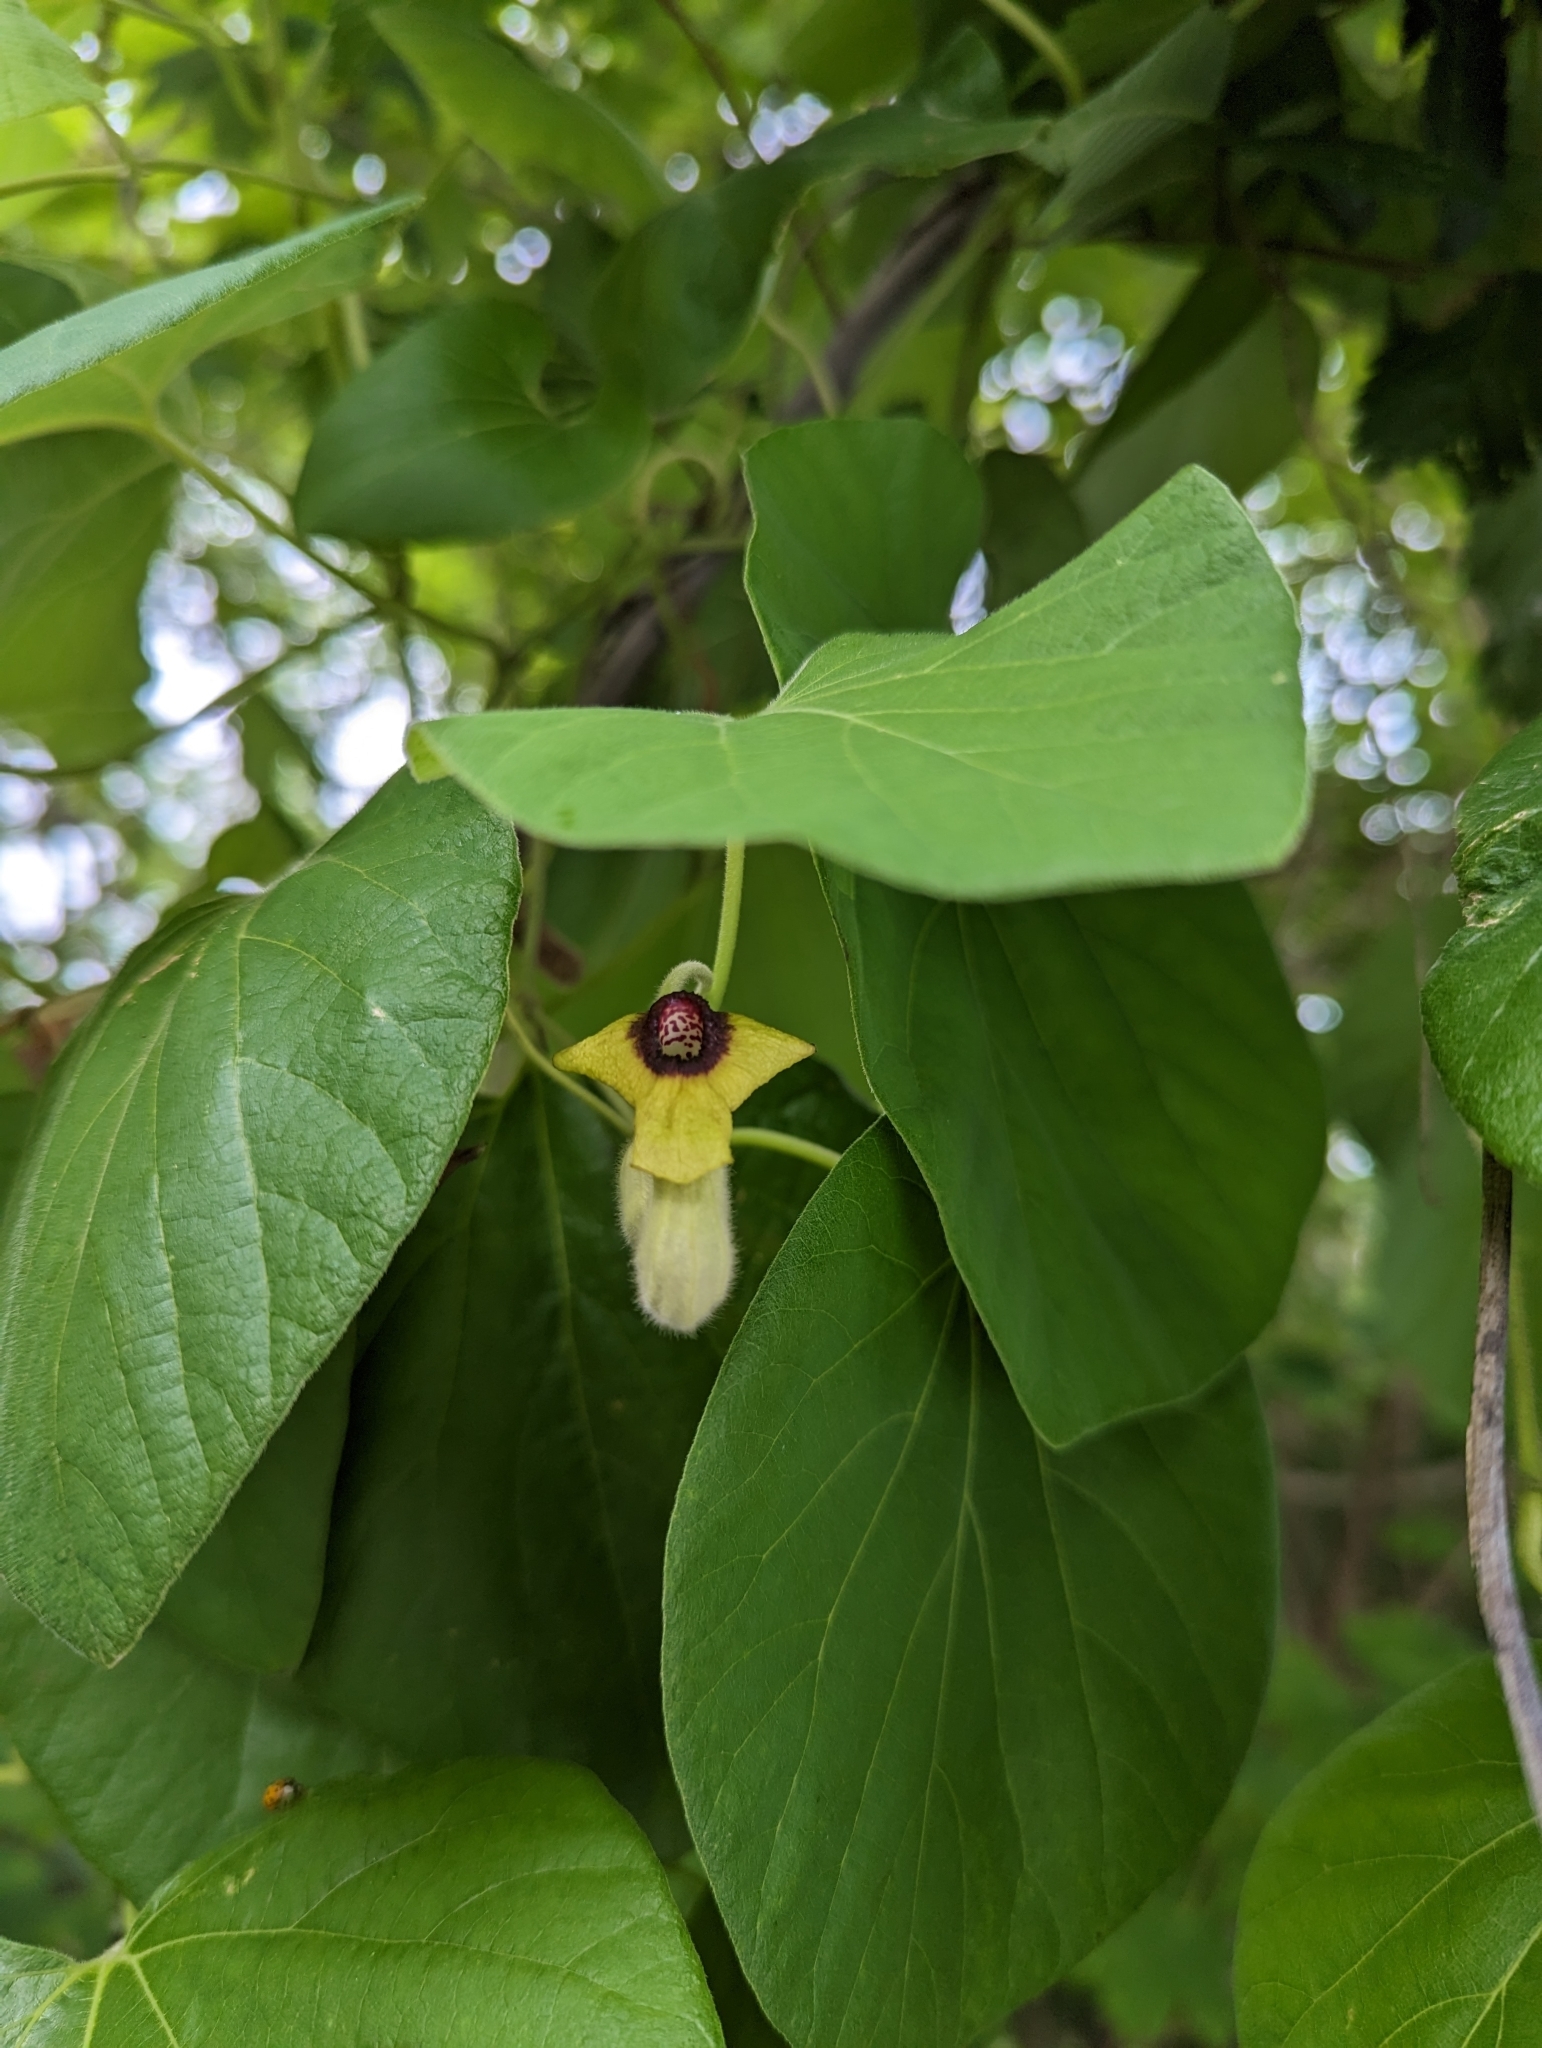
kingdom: Plantae
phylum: Tracheophyta
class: Magnoliopsida
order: Piperales
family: Aristolochiaceae
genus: Isotrema
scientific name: Isotrema tomentosum
